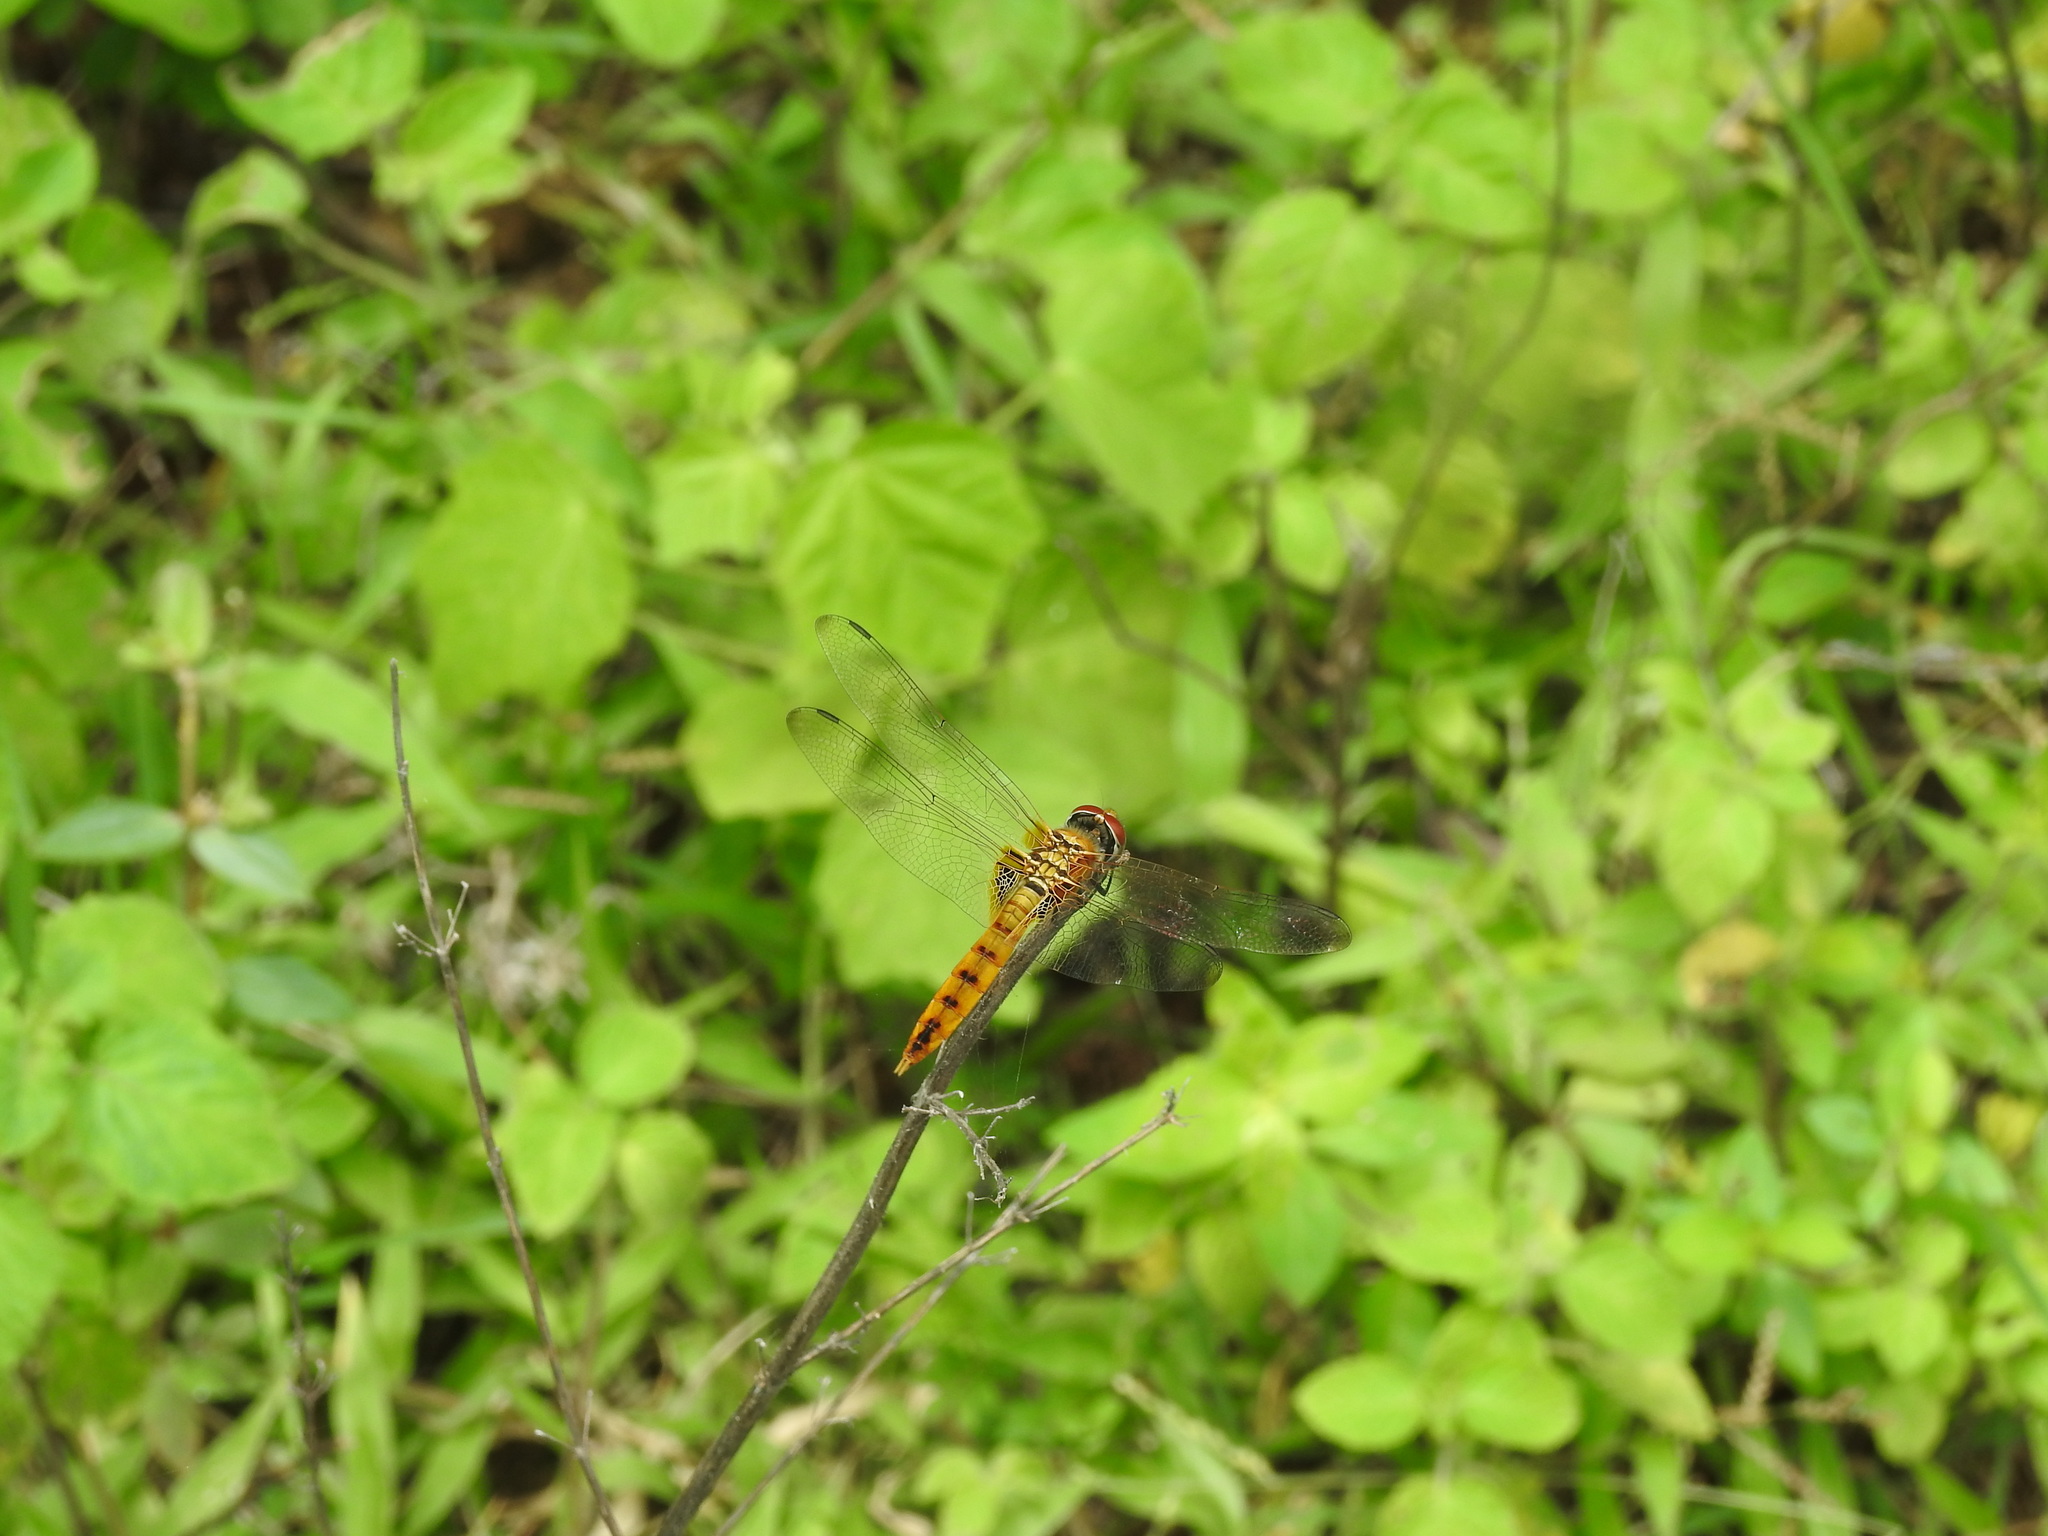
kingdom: Animalia
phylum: Arthropoda
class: Insecta
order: Odonata
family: Libellulidae
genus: Urothemis
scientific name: Urothemis signata
